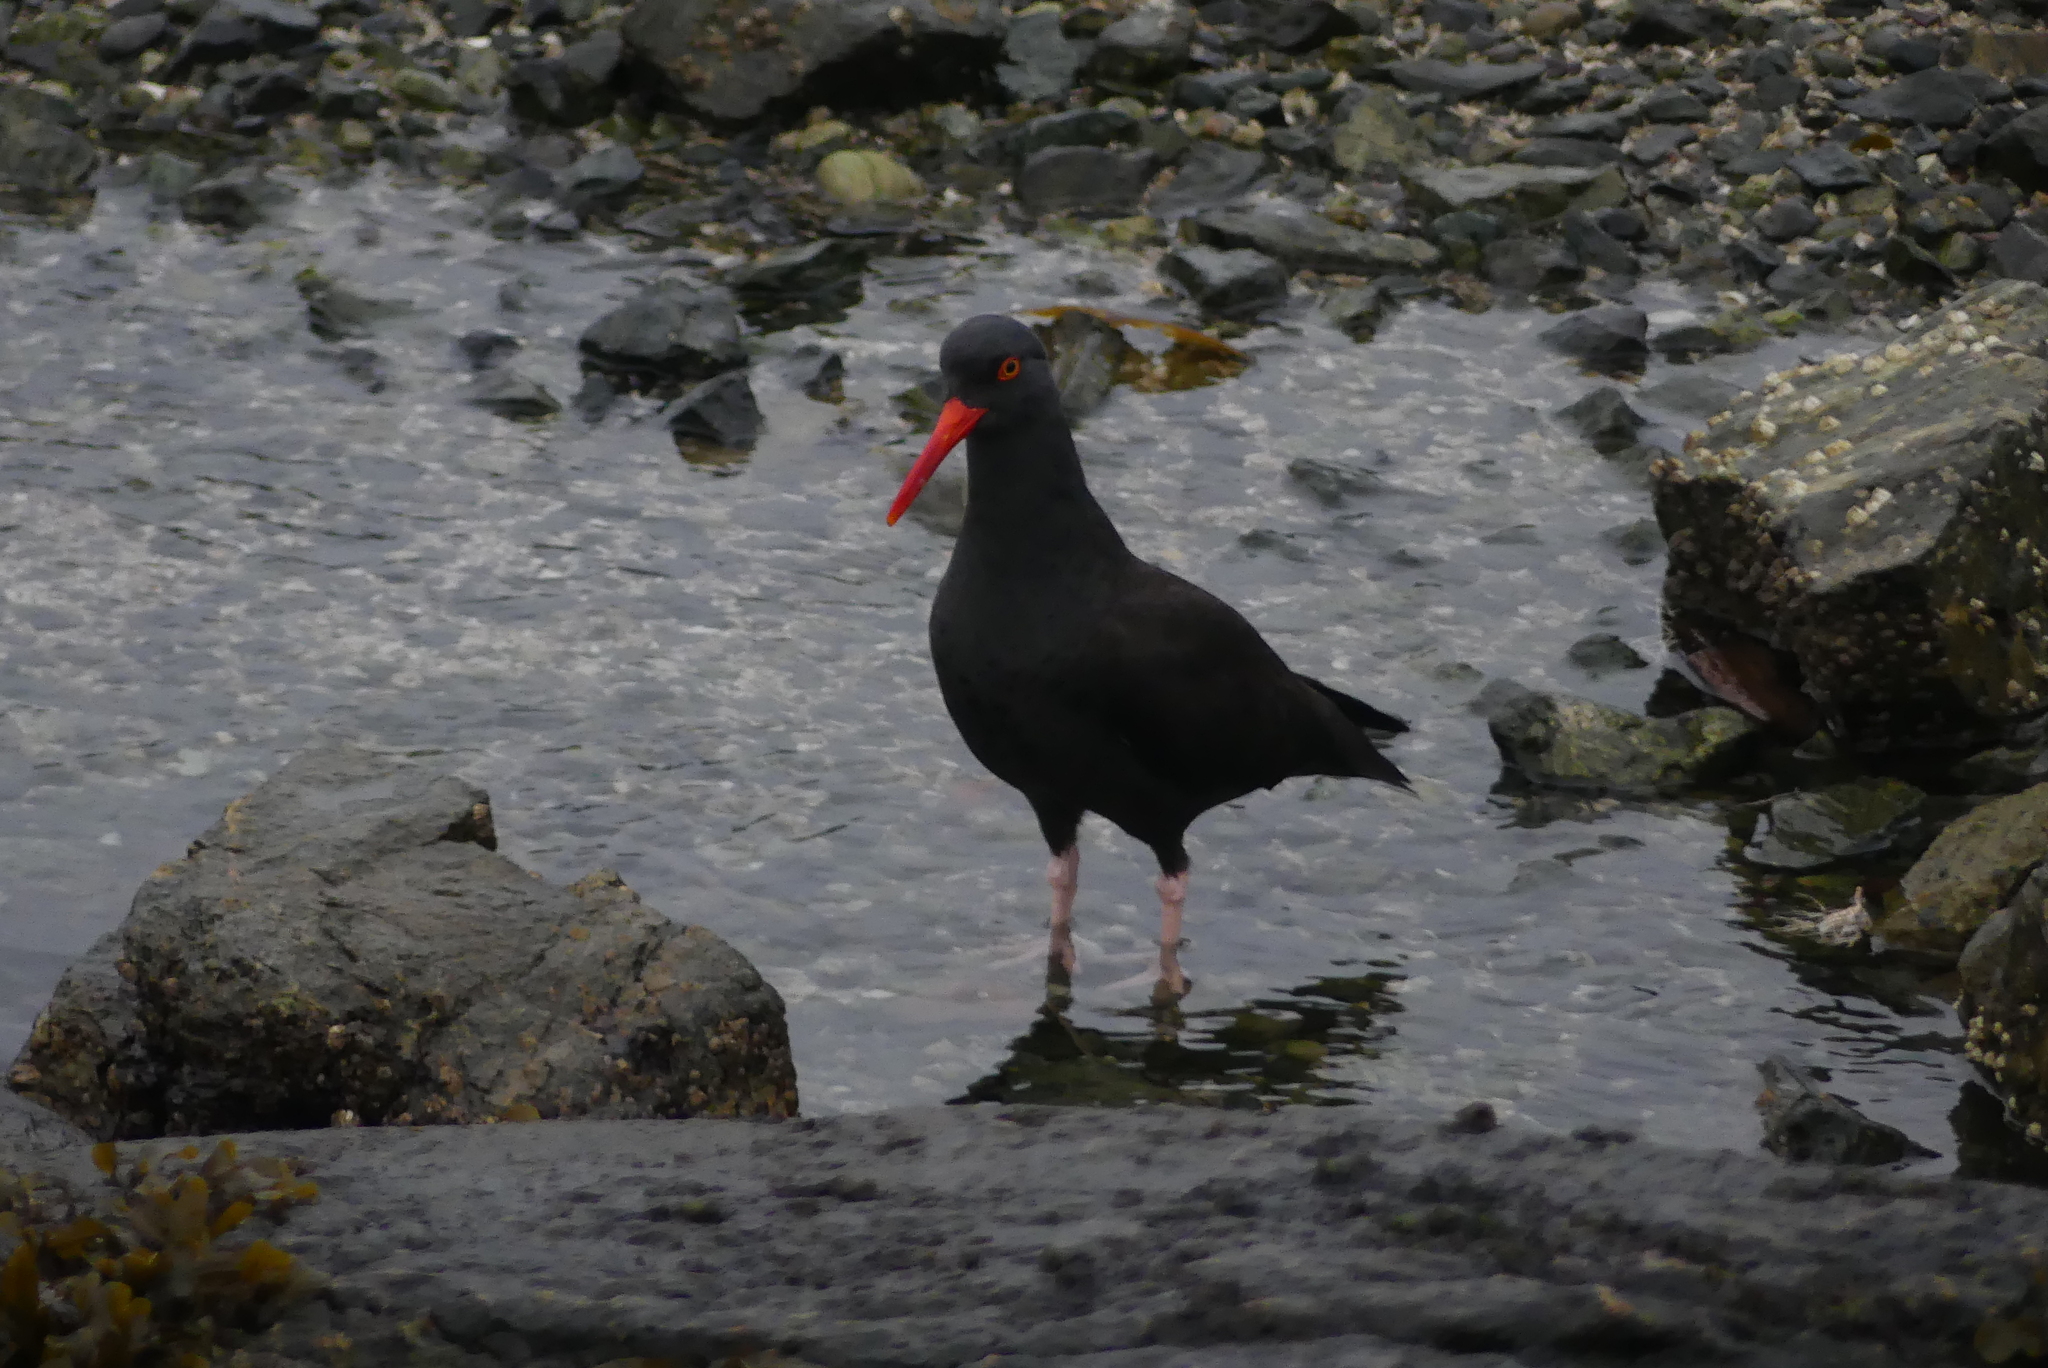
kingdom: Animalia
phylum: Chordata
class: Aves
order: Charadriiformes
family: Haematopodidae
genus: Haematopus
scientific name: Haematopus bachmani
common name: Black oystercatcher
